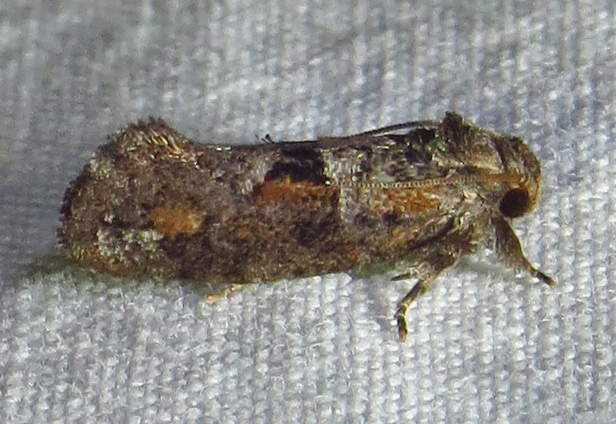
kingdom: Animalia
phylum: Arthropoda
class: Insecta
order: Lepidoptera
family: Tineidae
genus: Acrolophus
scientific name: Acrolophus piger
